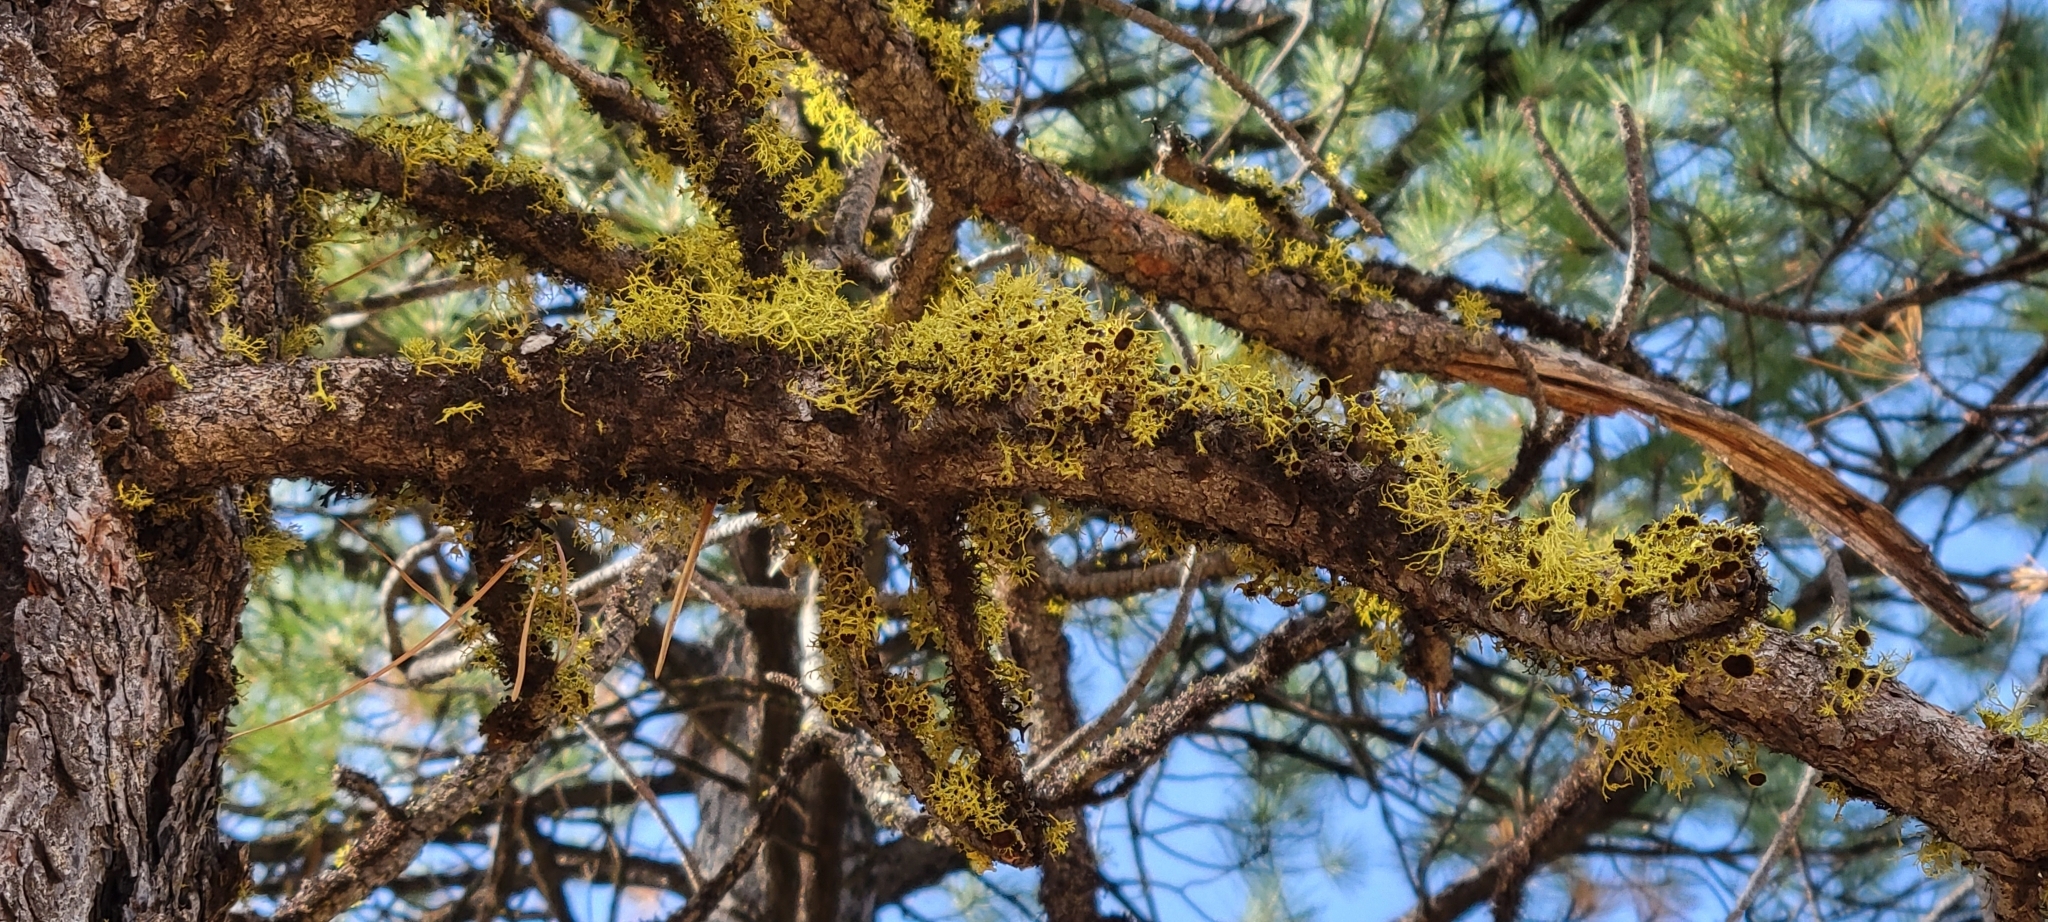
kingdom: Fungi
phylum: Ascomycota
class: Lecanoromycetes
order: Lecanorales
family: Parmeliaceae
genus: Letharia
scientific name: Letharia columbiana
